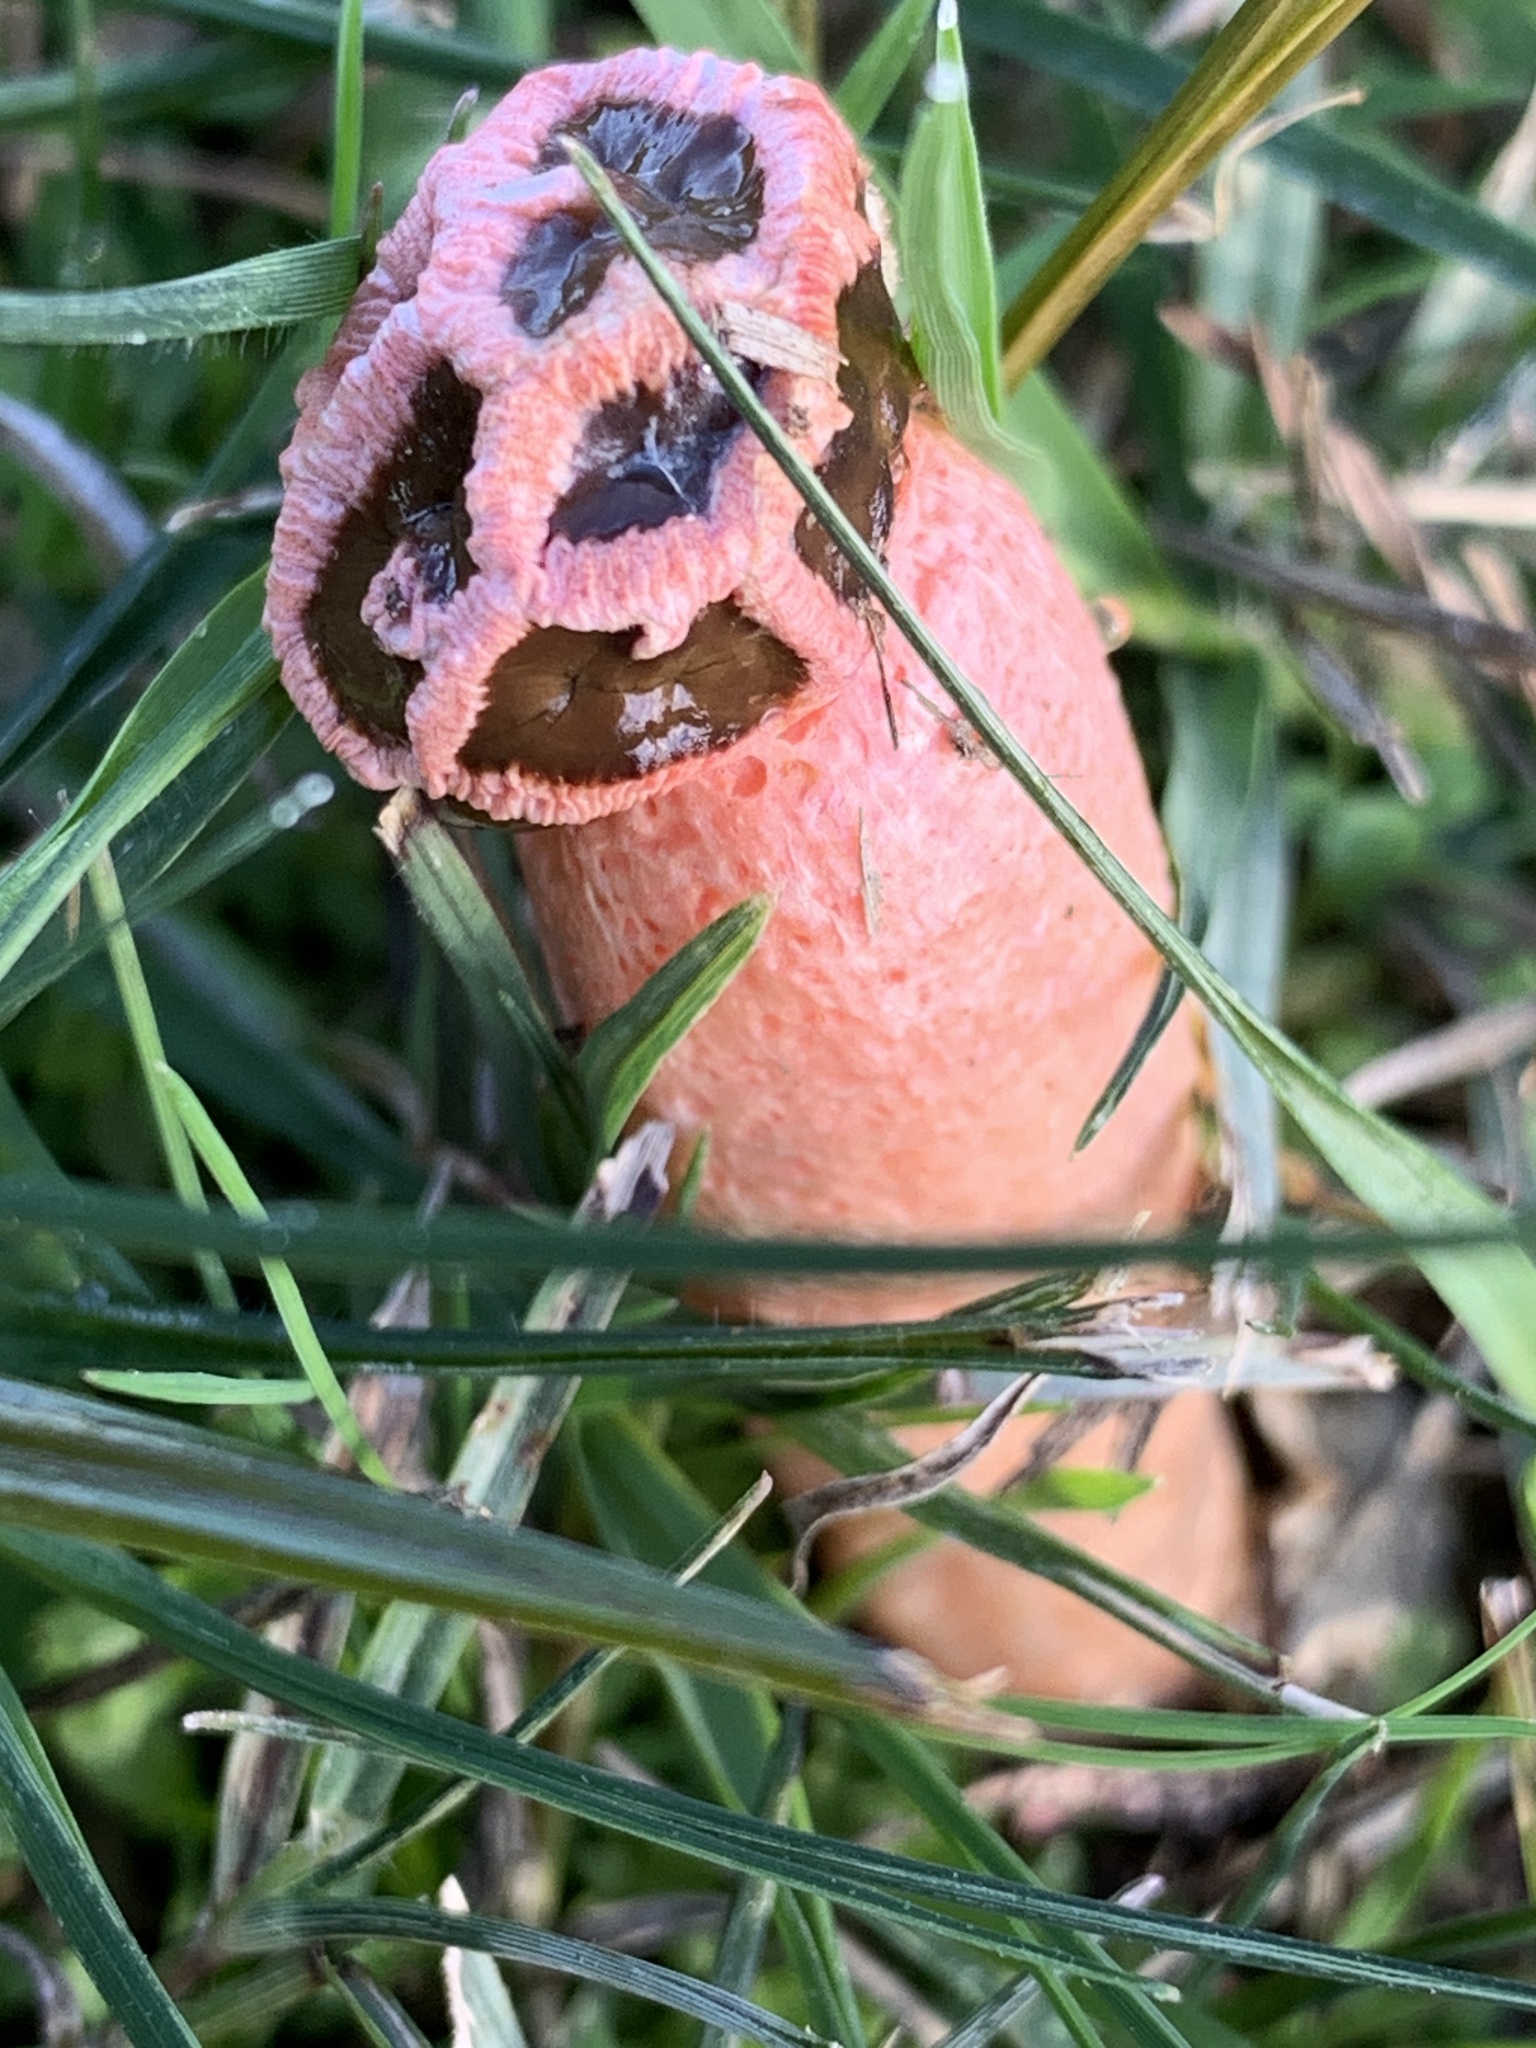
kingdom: Fungi
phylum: Basidiomycota
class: Agaricomycetes
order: Phallales
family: Phallaceae
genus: Lysurus
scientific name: Lysurus periphragmoides
